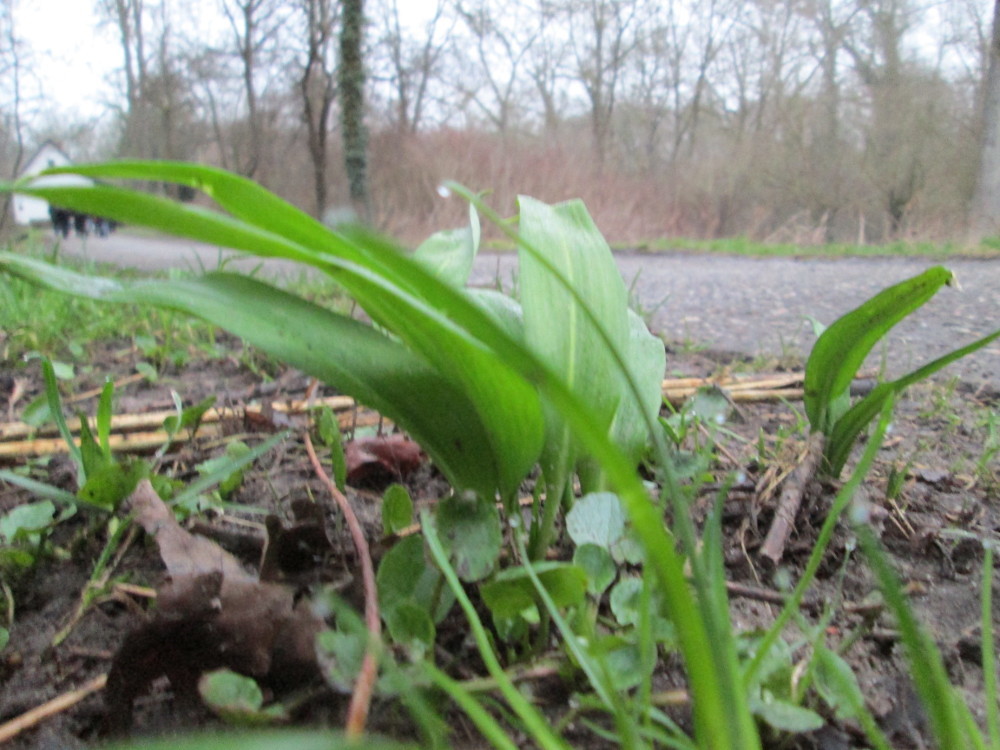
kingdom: Plantae
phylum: Tracheophyta
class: Liliopsida
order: Asparagales
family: Amaryllidaceae
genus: Allium
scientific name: Allium ursinum
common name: Ramsons
